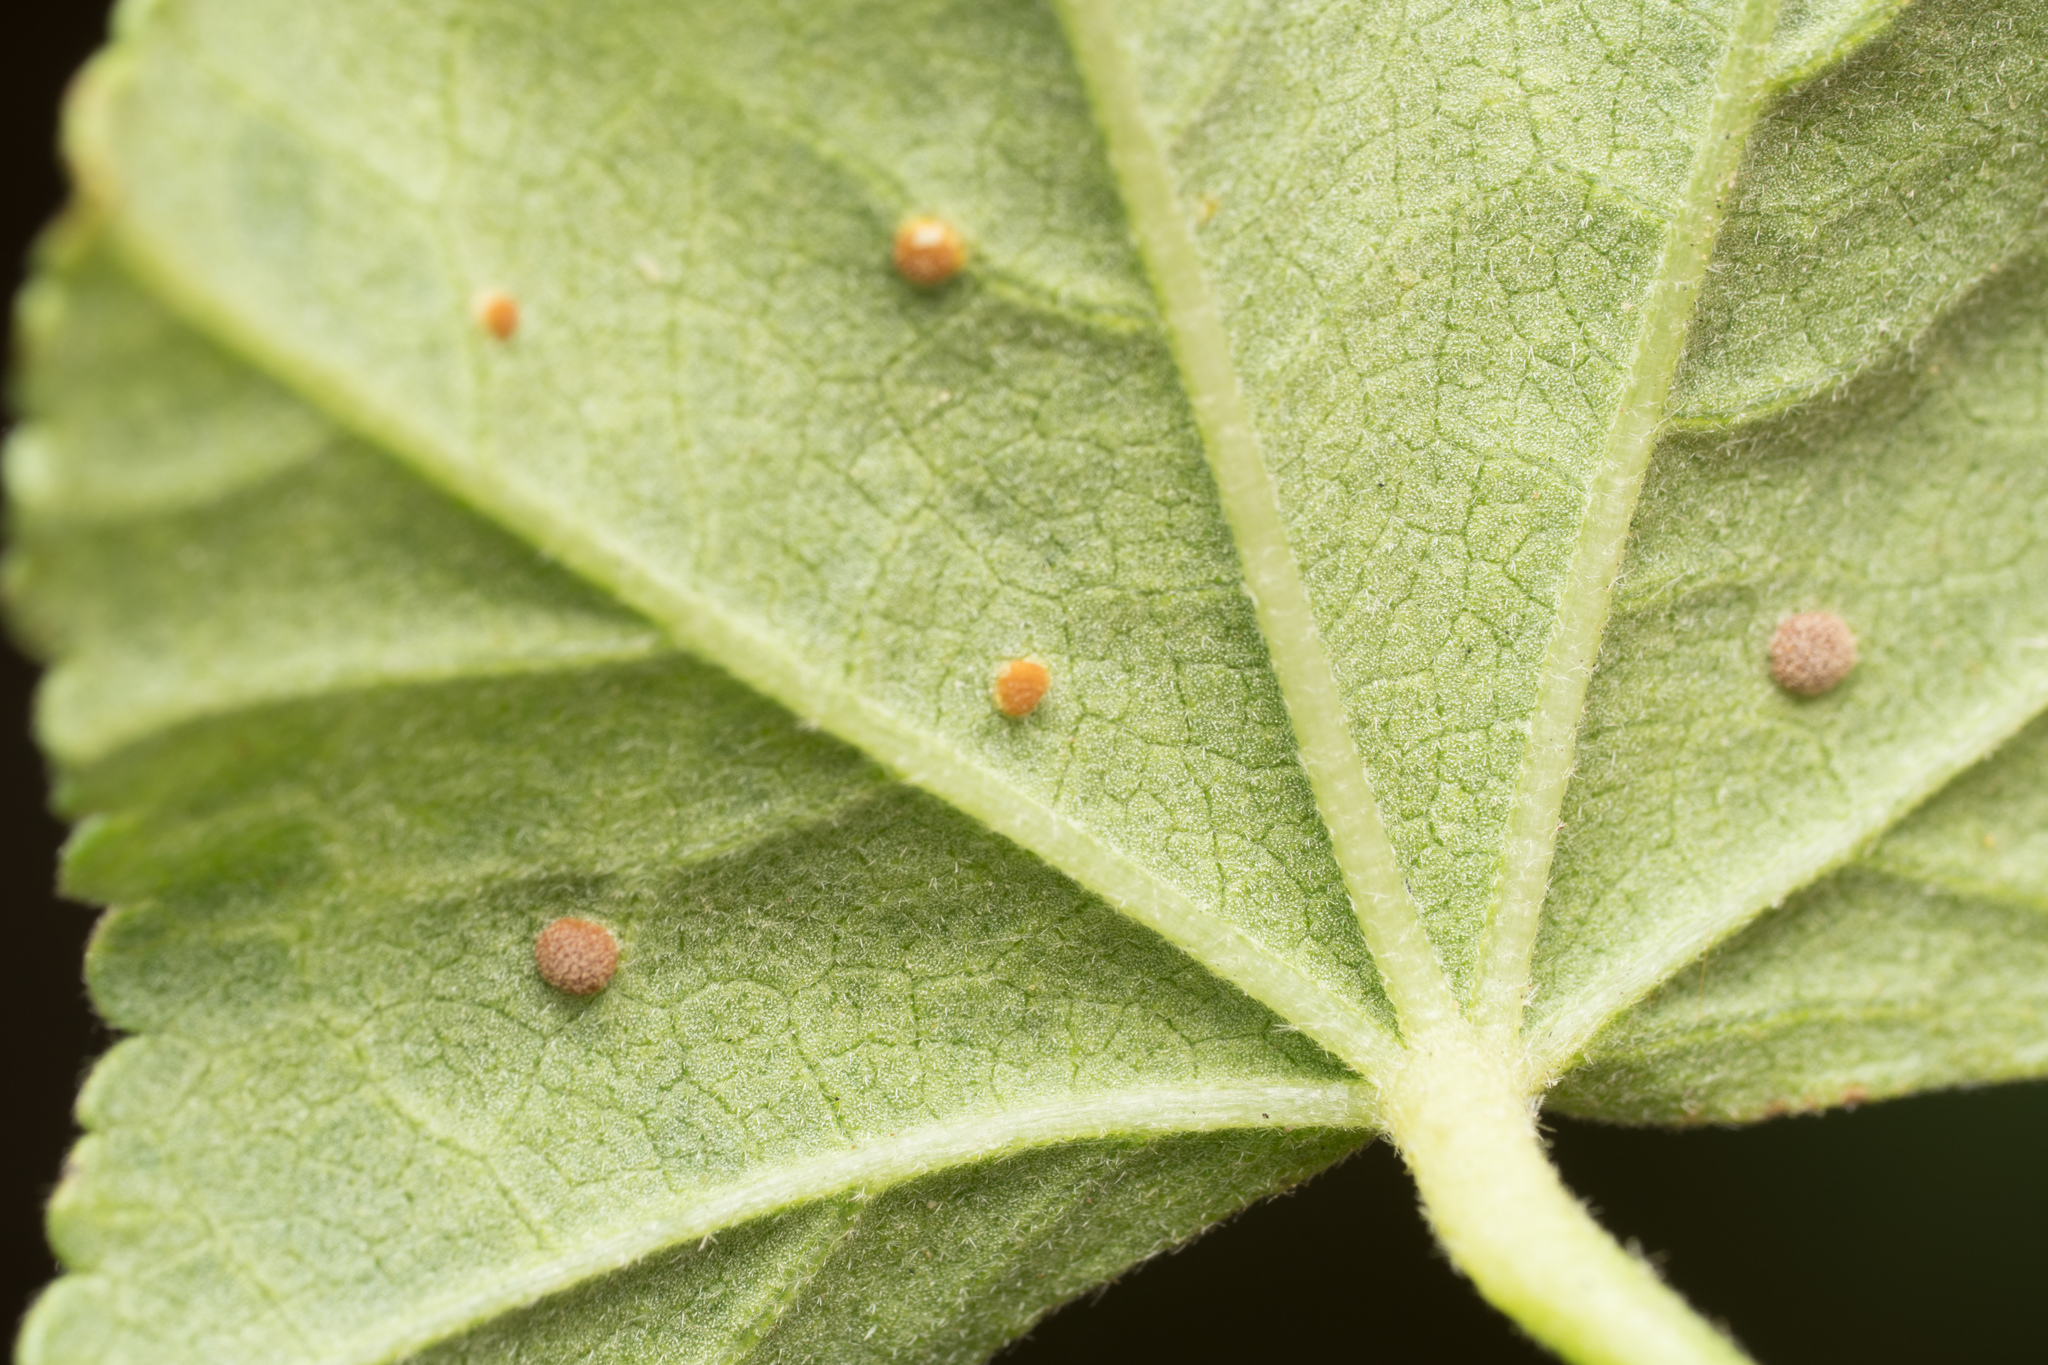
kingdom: Fungi
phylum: Basidiomycota
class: Pucciniomycetes
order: Pucciniales
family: Pucciniaceae
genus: Puccinia
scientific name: Puccinia malvacearum
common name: Hollyhock rust
